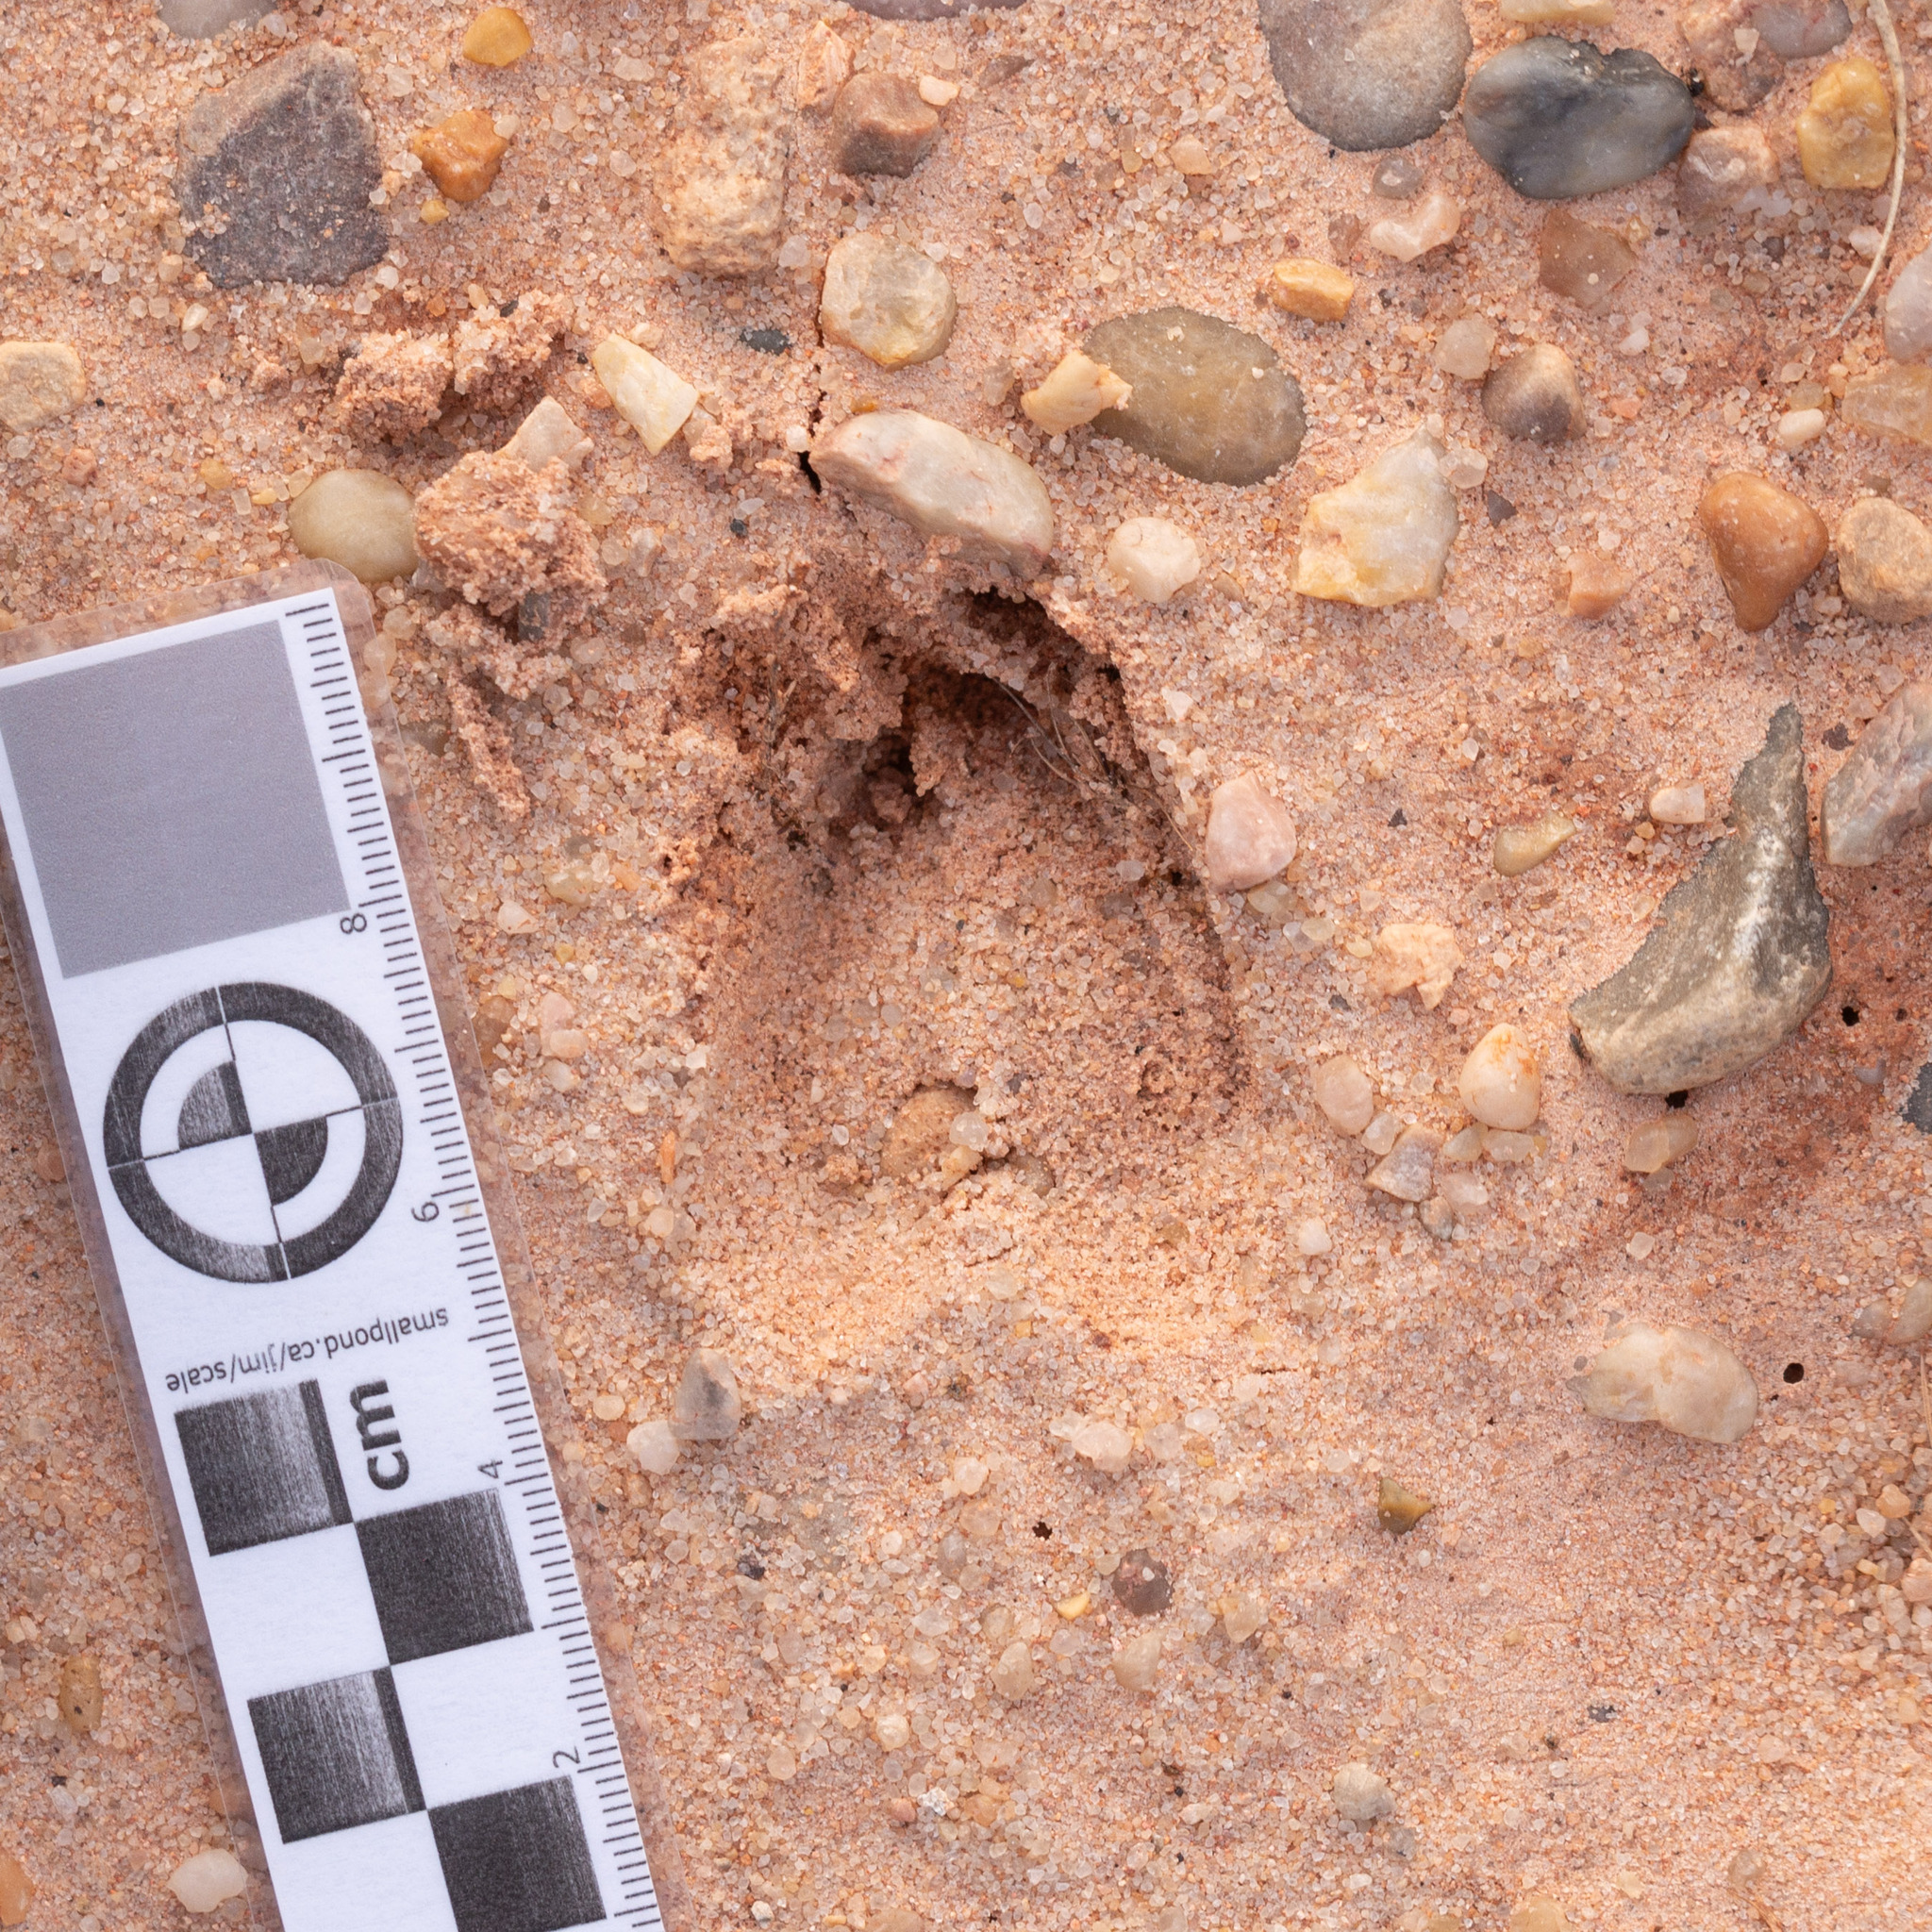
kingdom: Animalia
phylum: Chordata
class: Mammalia
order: Artiodactyla
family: Cervidae
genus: Capreolus
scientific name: Capreolus capreolus
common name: Western roe deer
